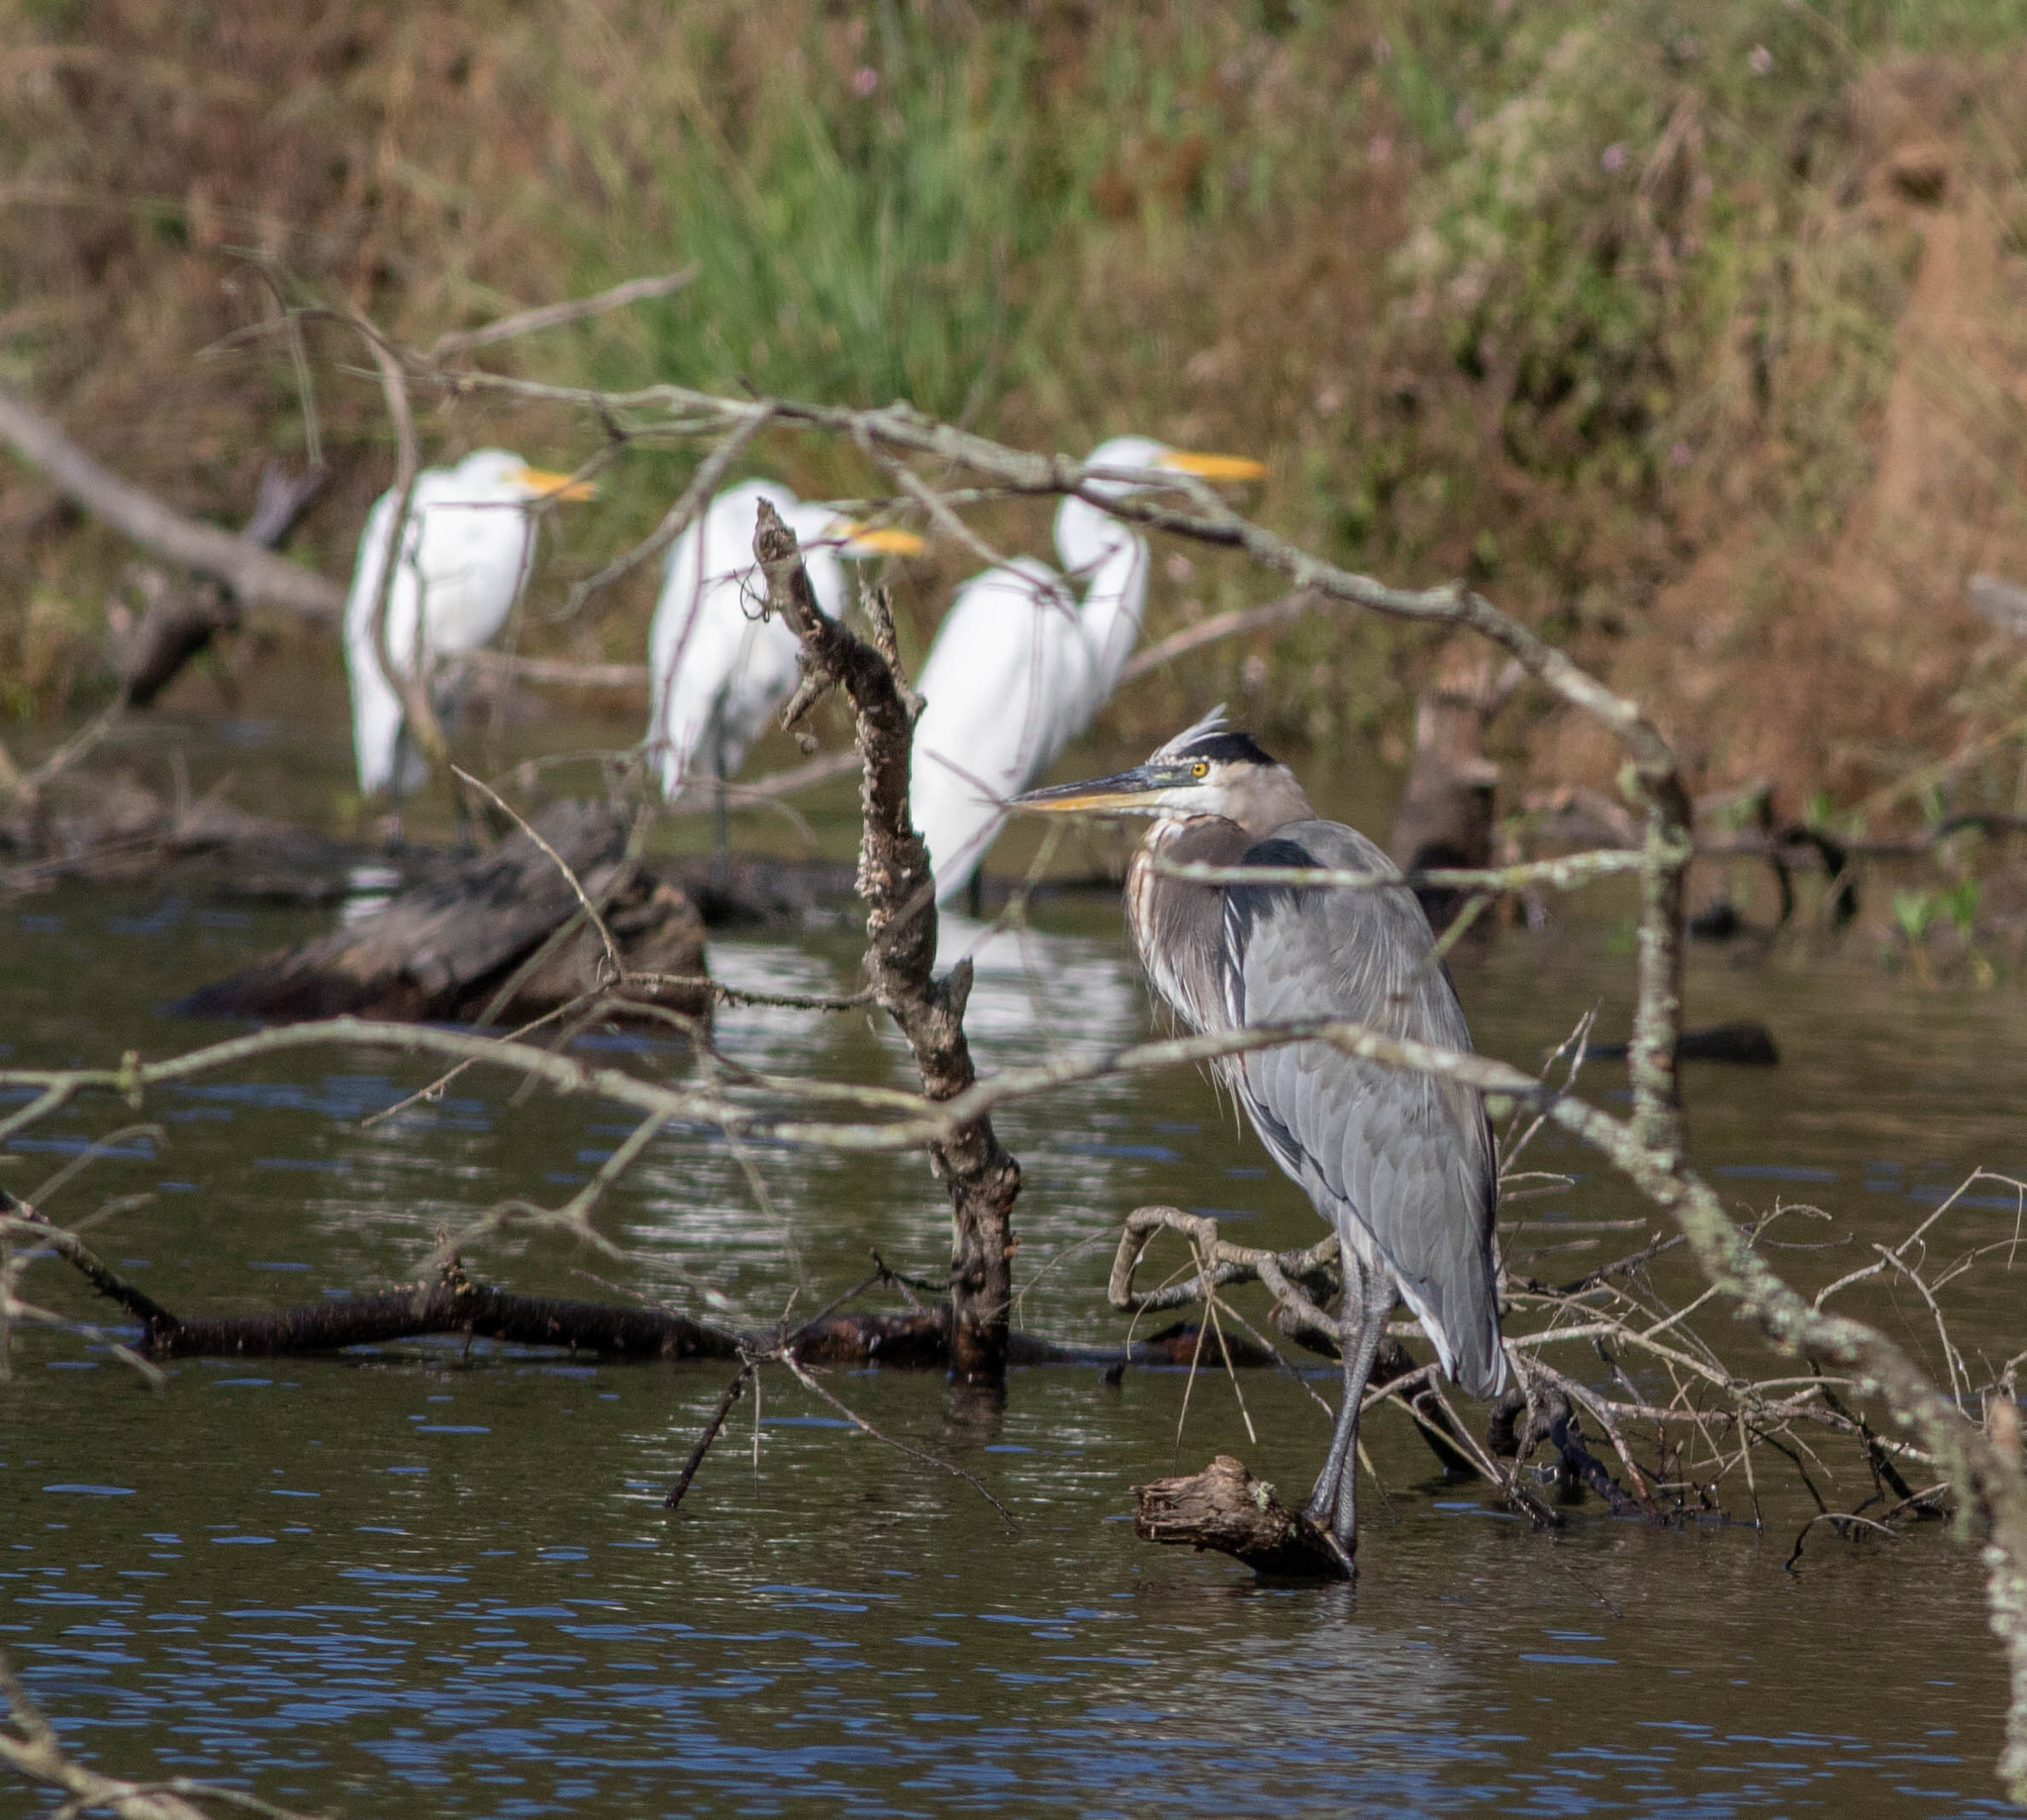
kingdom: Animalia
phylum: Chordata
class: Aves
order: Pelecaniformes
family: Ardeidae
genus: Ardea
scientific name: Ardea herodias
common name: Great blue heron
